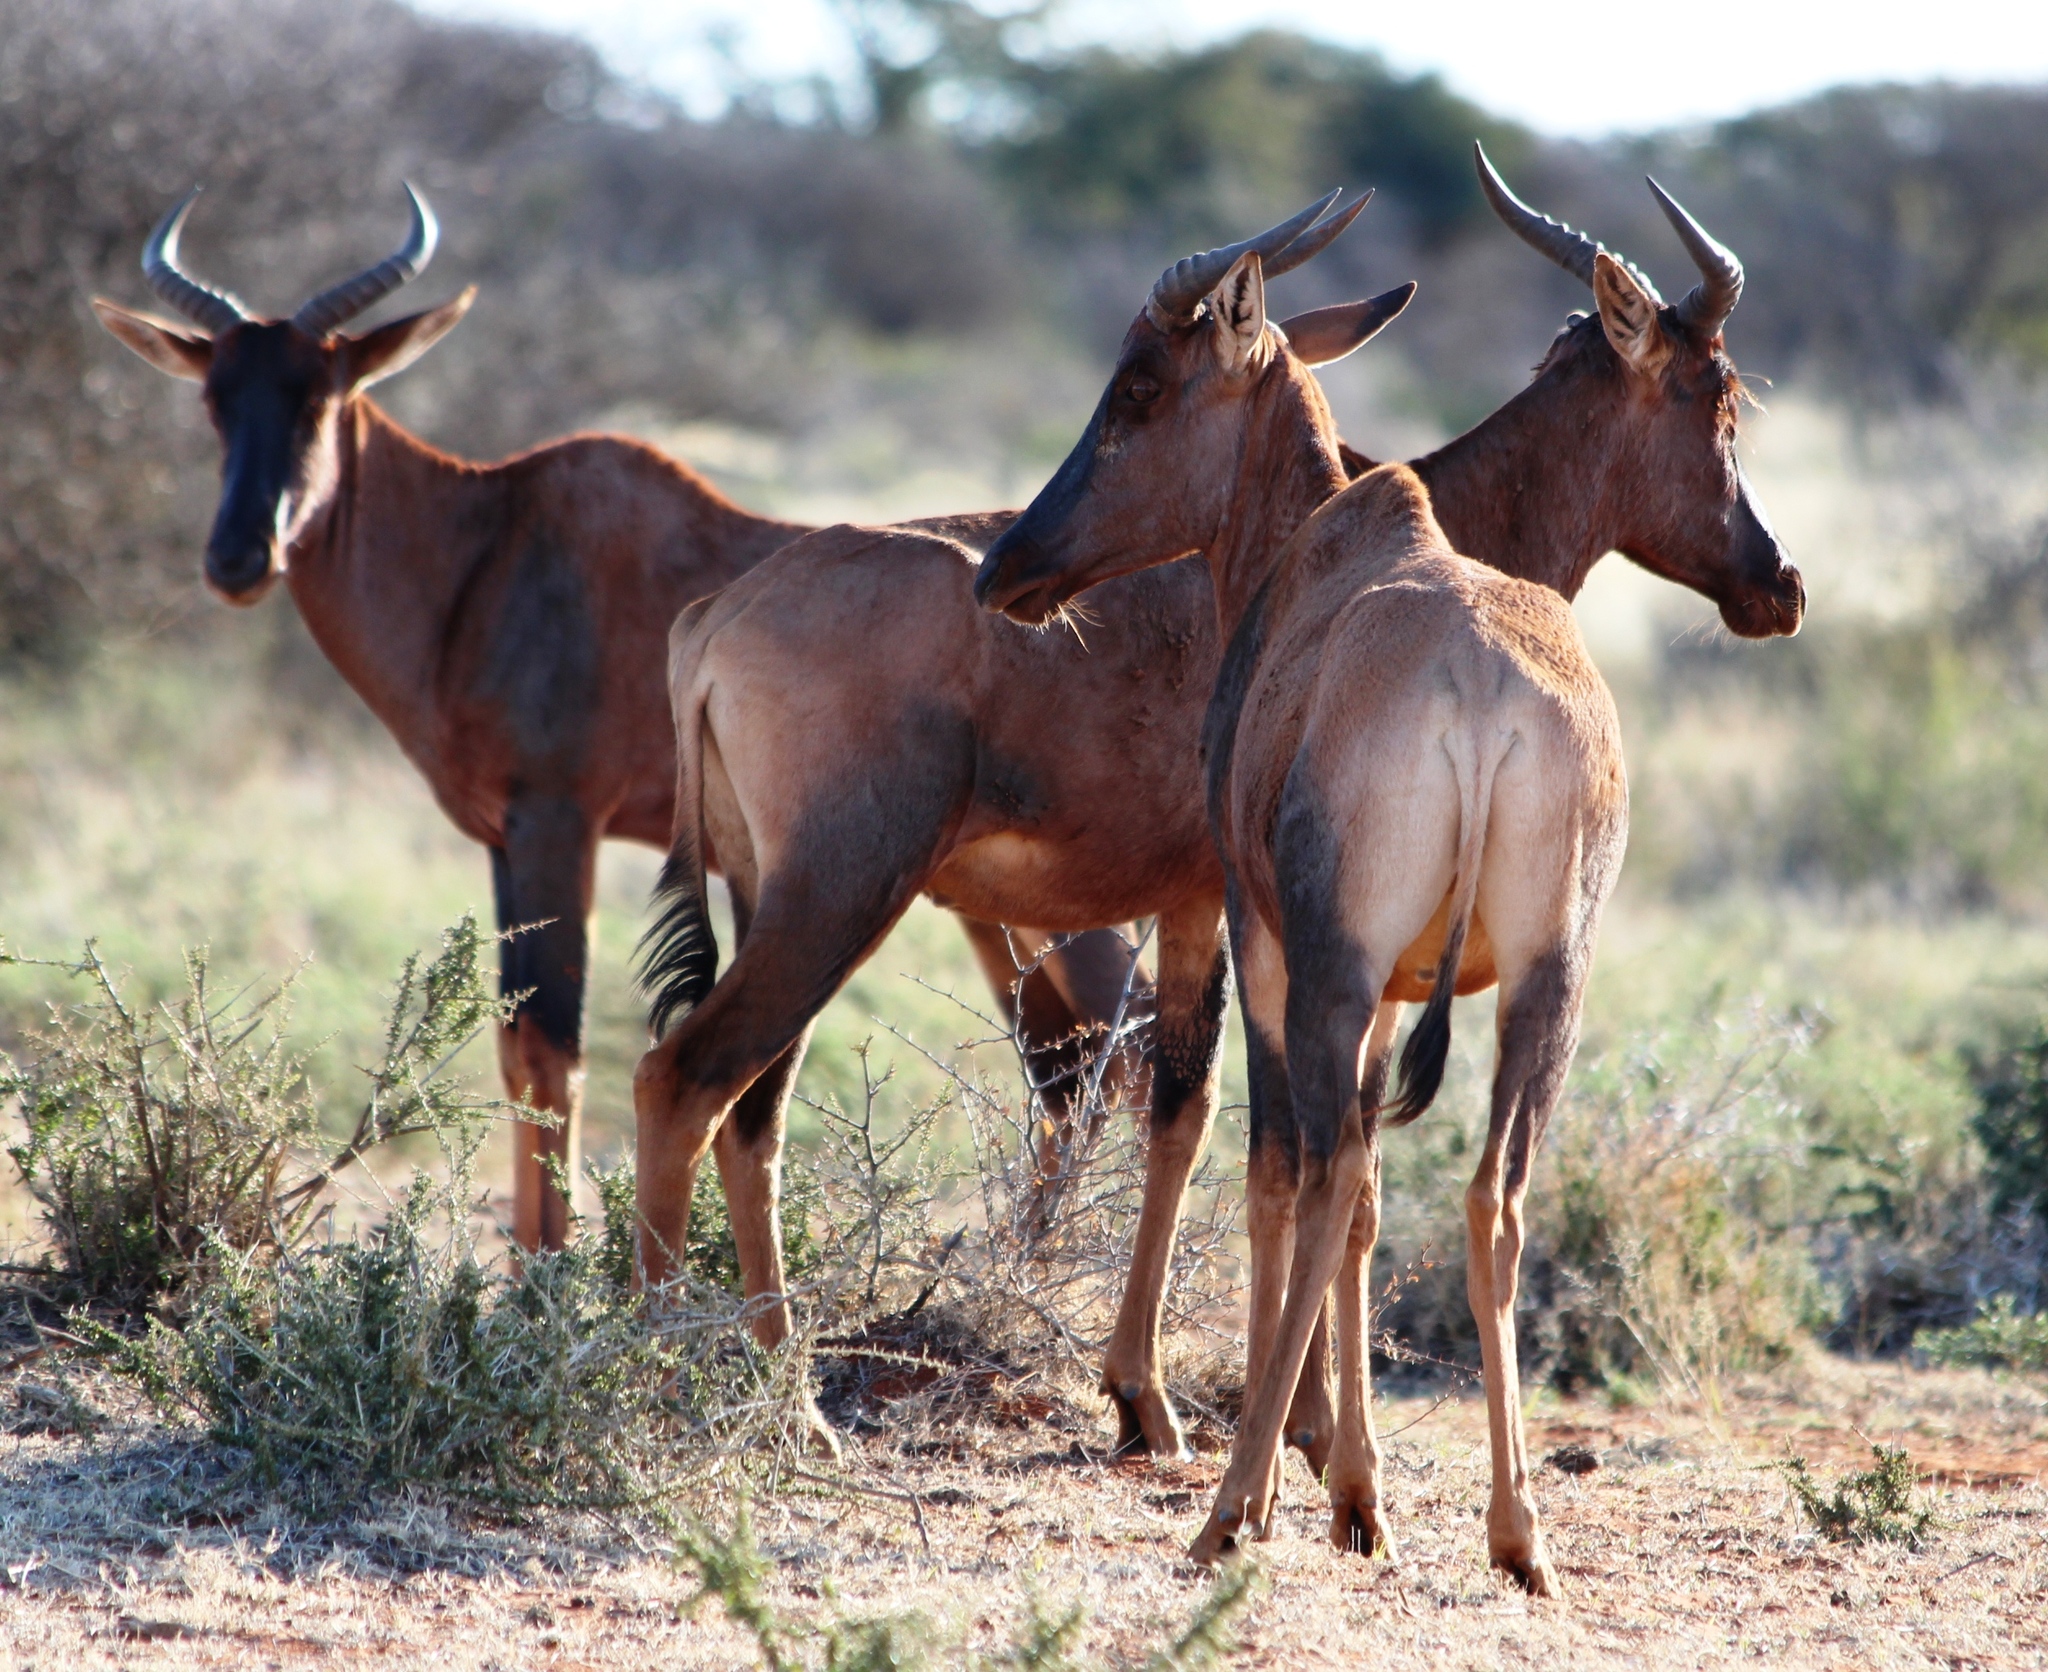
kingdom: Animalia
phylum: Chordata
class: Mammalia
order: Artiodactyla
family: Bovidae
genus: Damaliscus
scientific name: Damaliscus lunatus
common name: Common tsessebe
